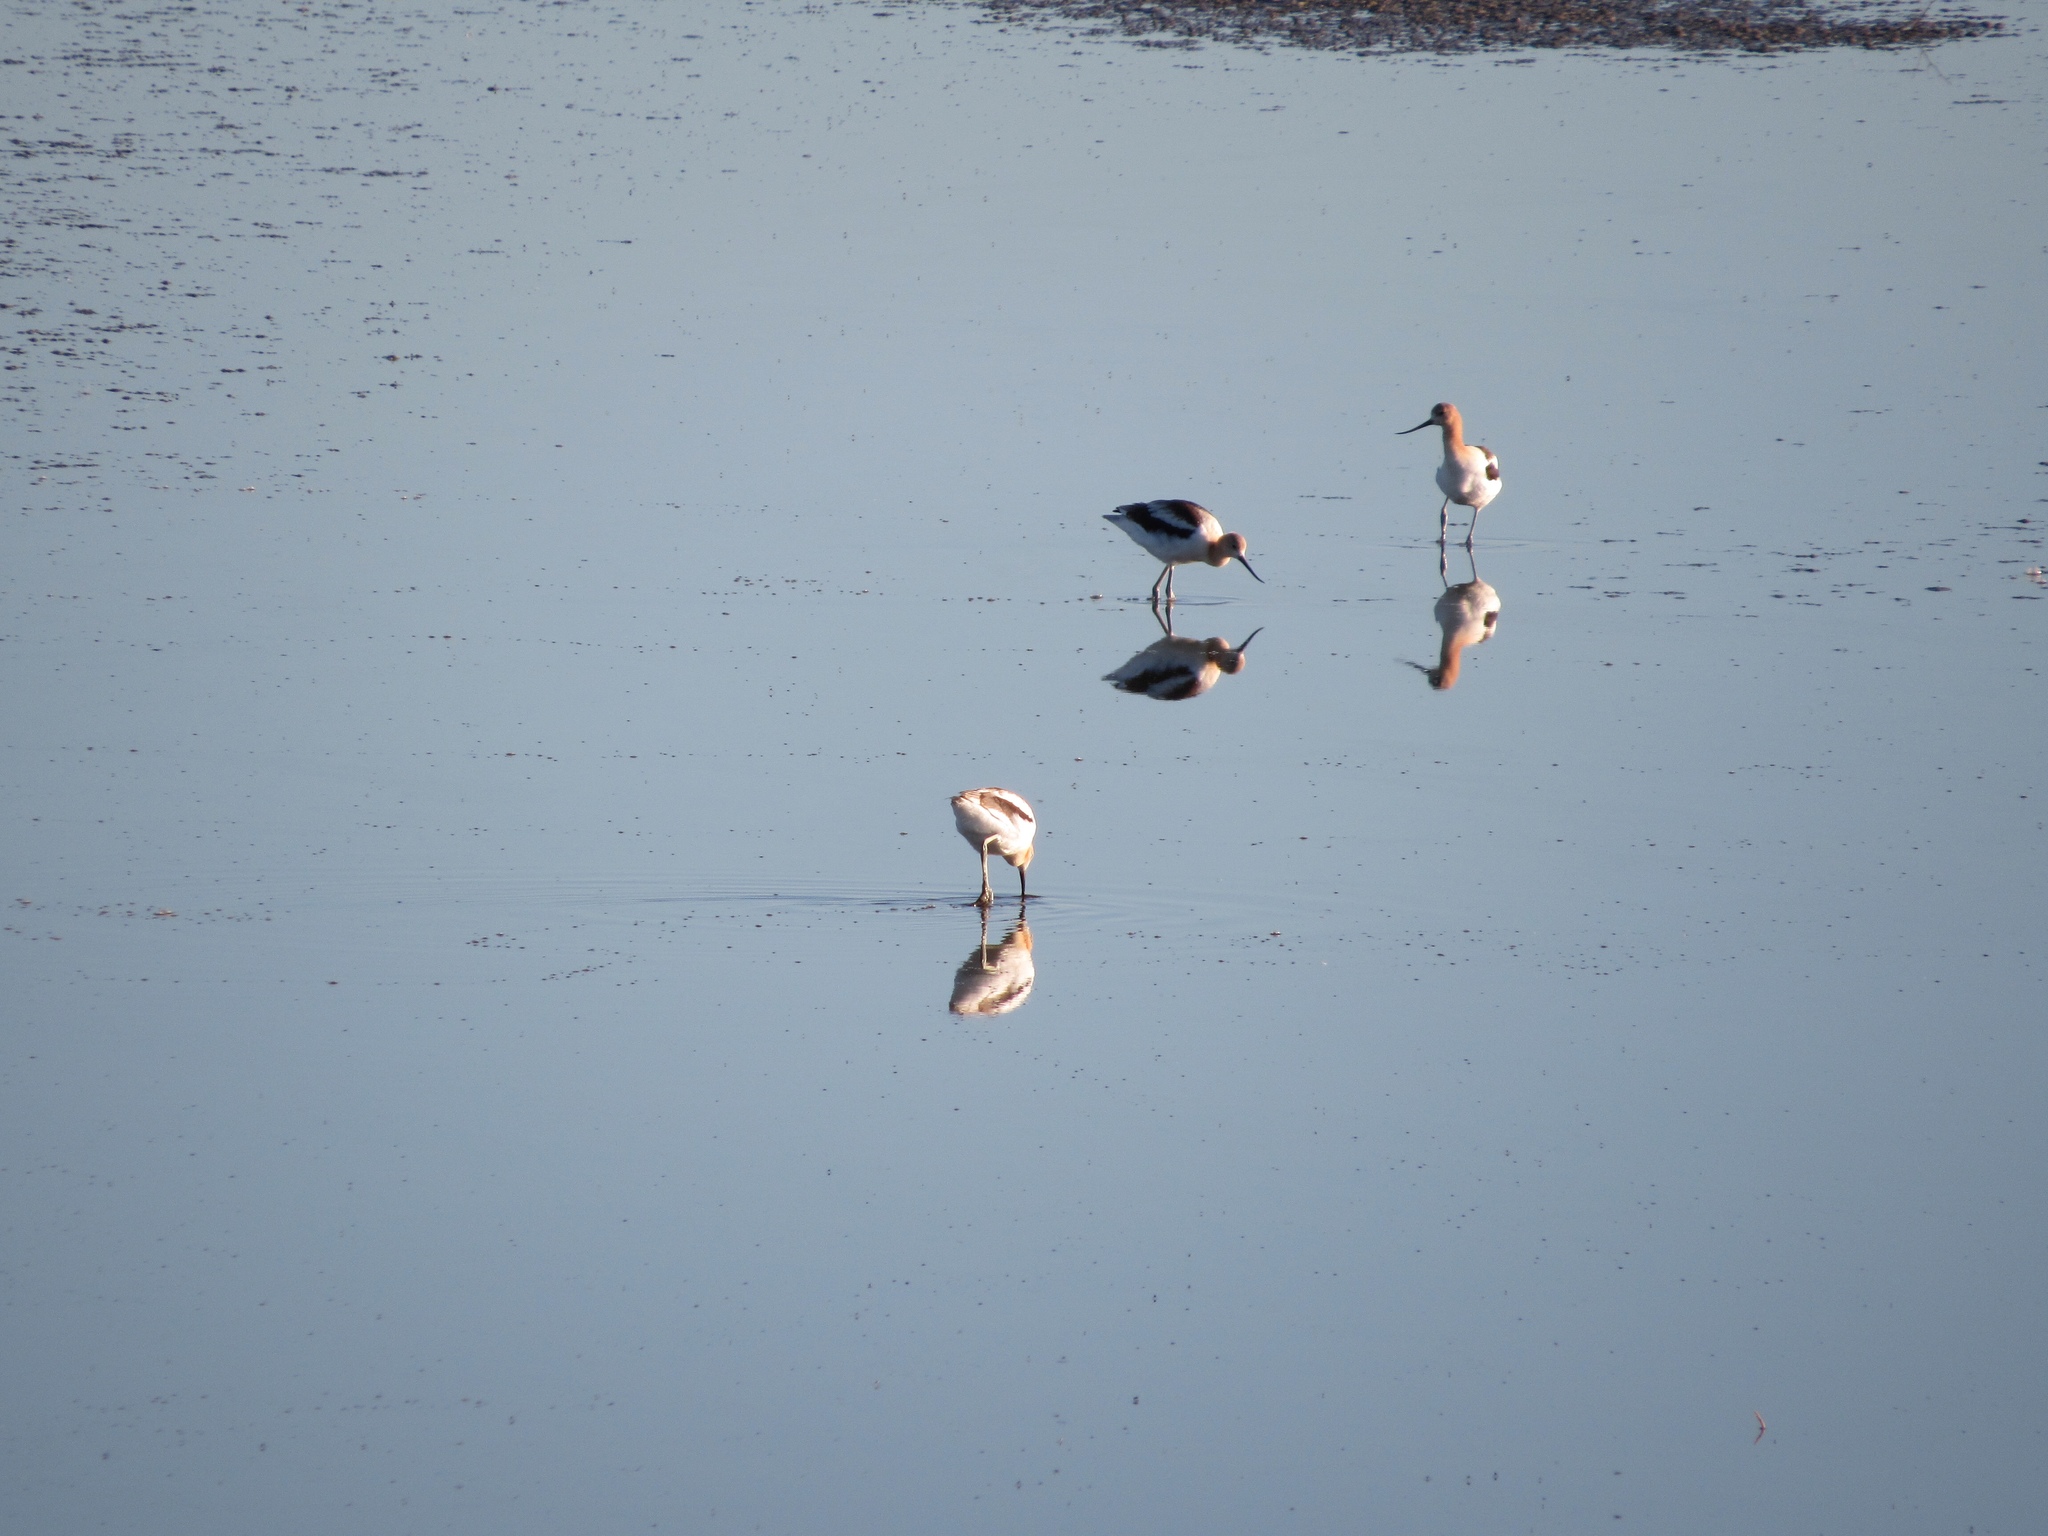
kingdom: Animalia
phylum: Chordata
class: Aves
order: Charadriiformes
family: Recurvirostridae
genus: Recurvirostra
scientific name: Recurvirostra americana
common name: American avocet
